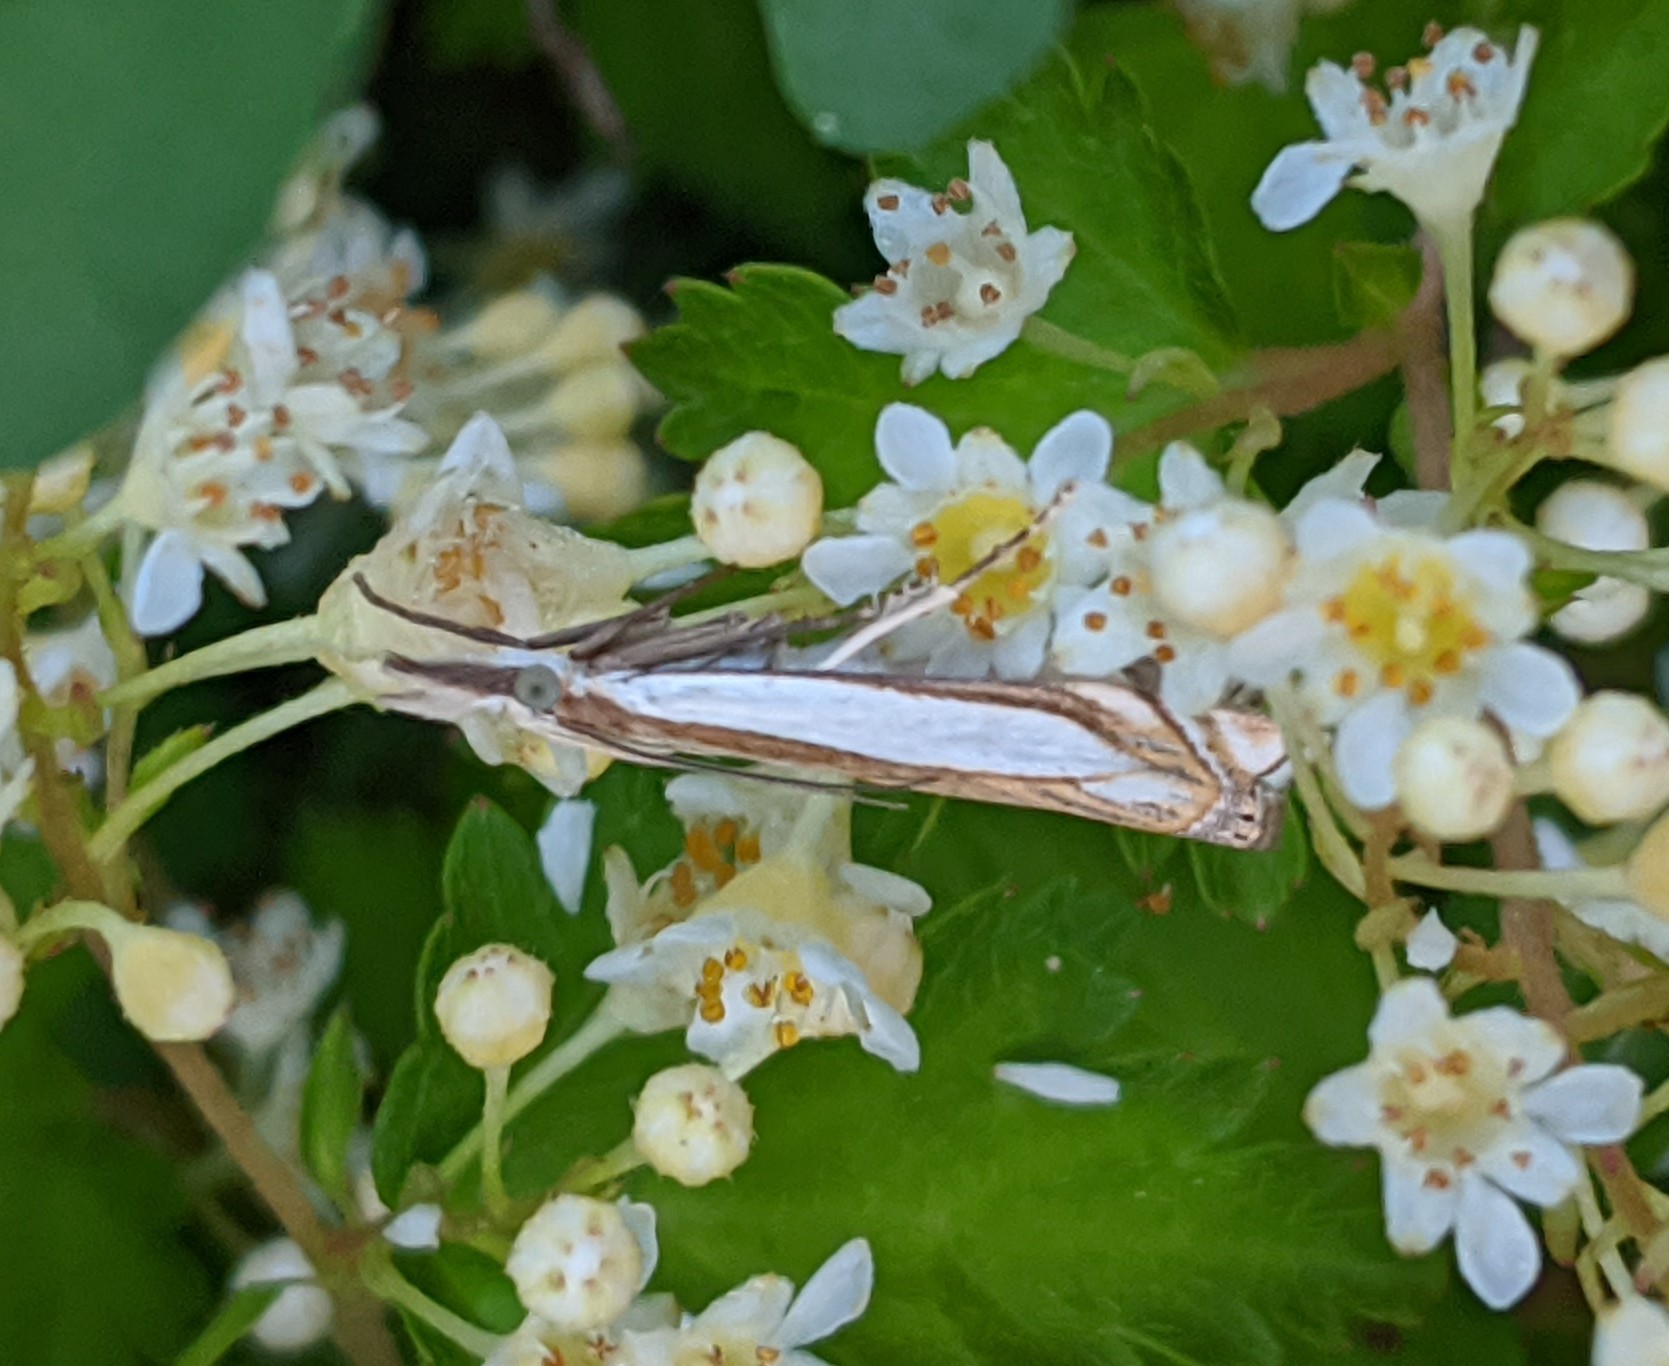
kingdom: Animalia
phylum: Arthropoda
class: Insecta
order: Lepidoptera
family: Crambidae
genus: Crambus
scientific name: Crambus pascuella
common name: Inlaid grass-veneer
